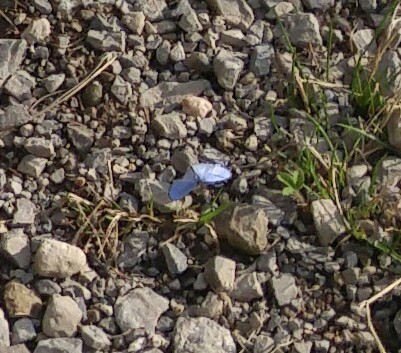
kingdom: Animalia
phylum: Arthropoda
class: Insecta
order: Lepidoptera
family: Lycaenidae
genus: Celastrina
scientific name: Celastrina lucia
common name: Lucia azure
